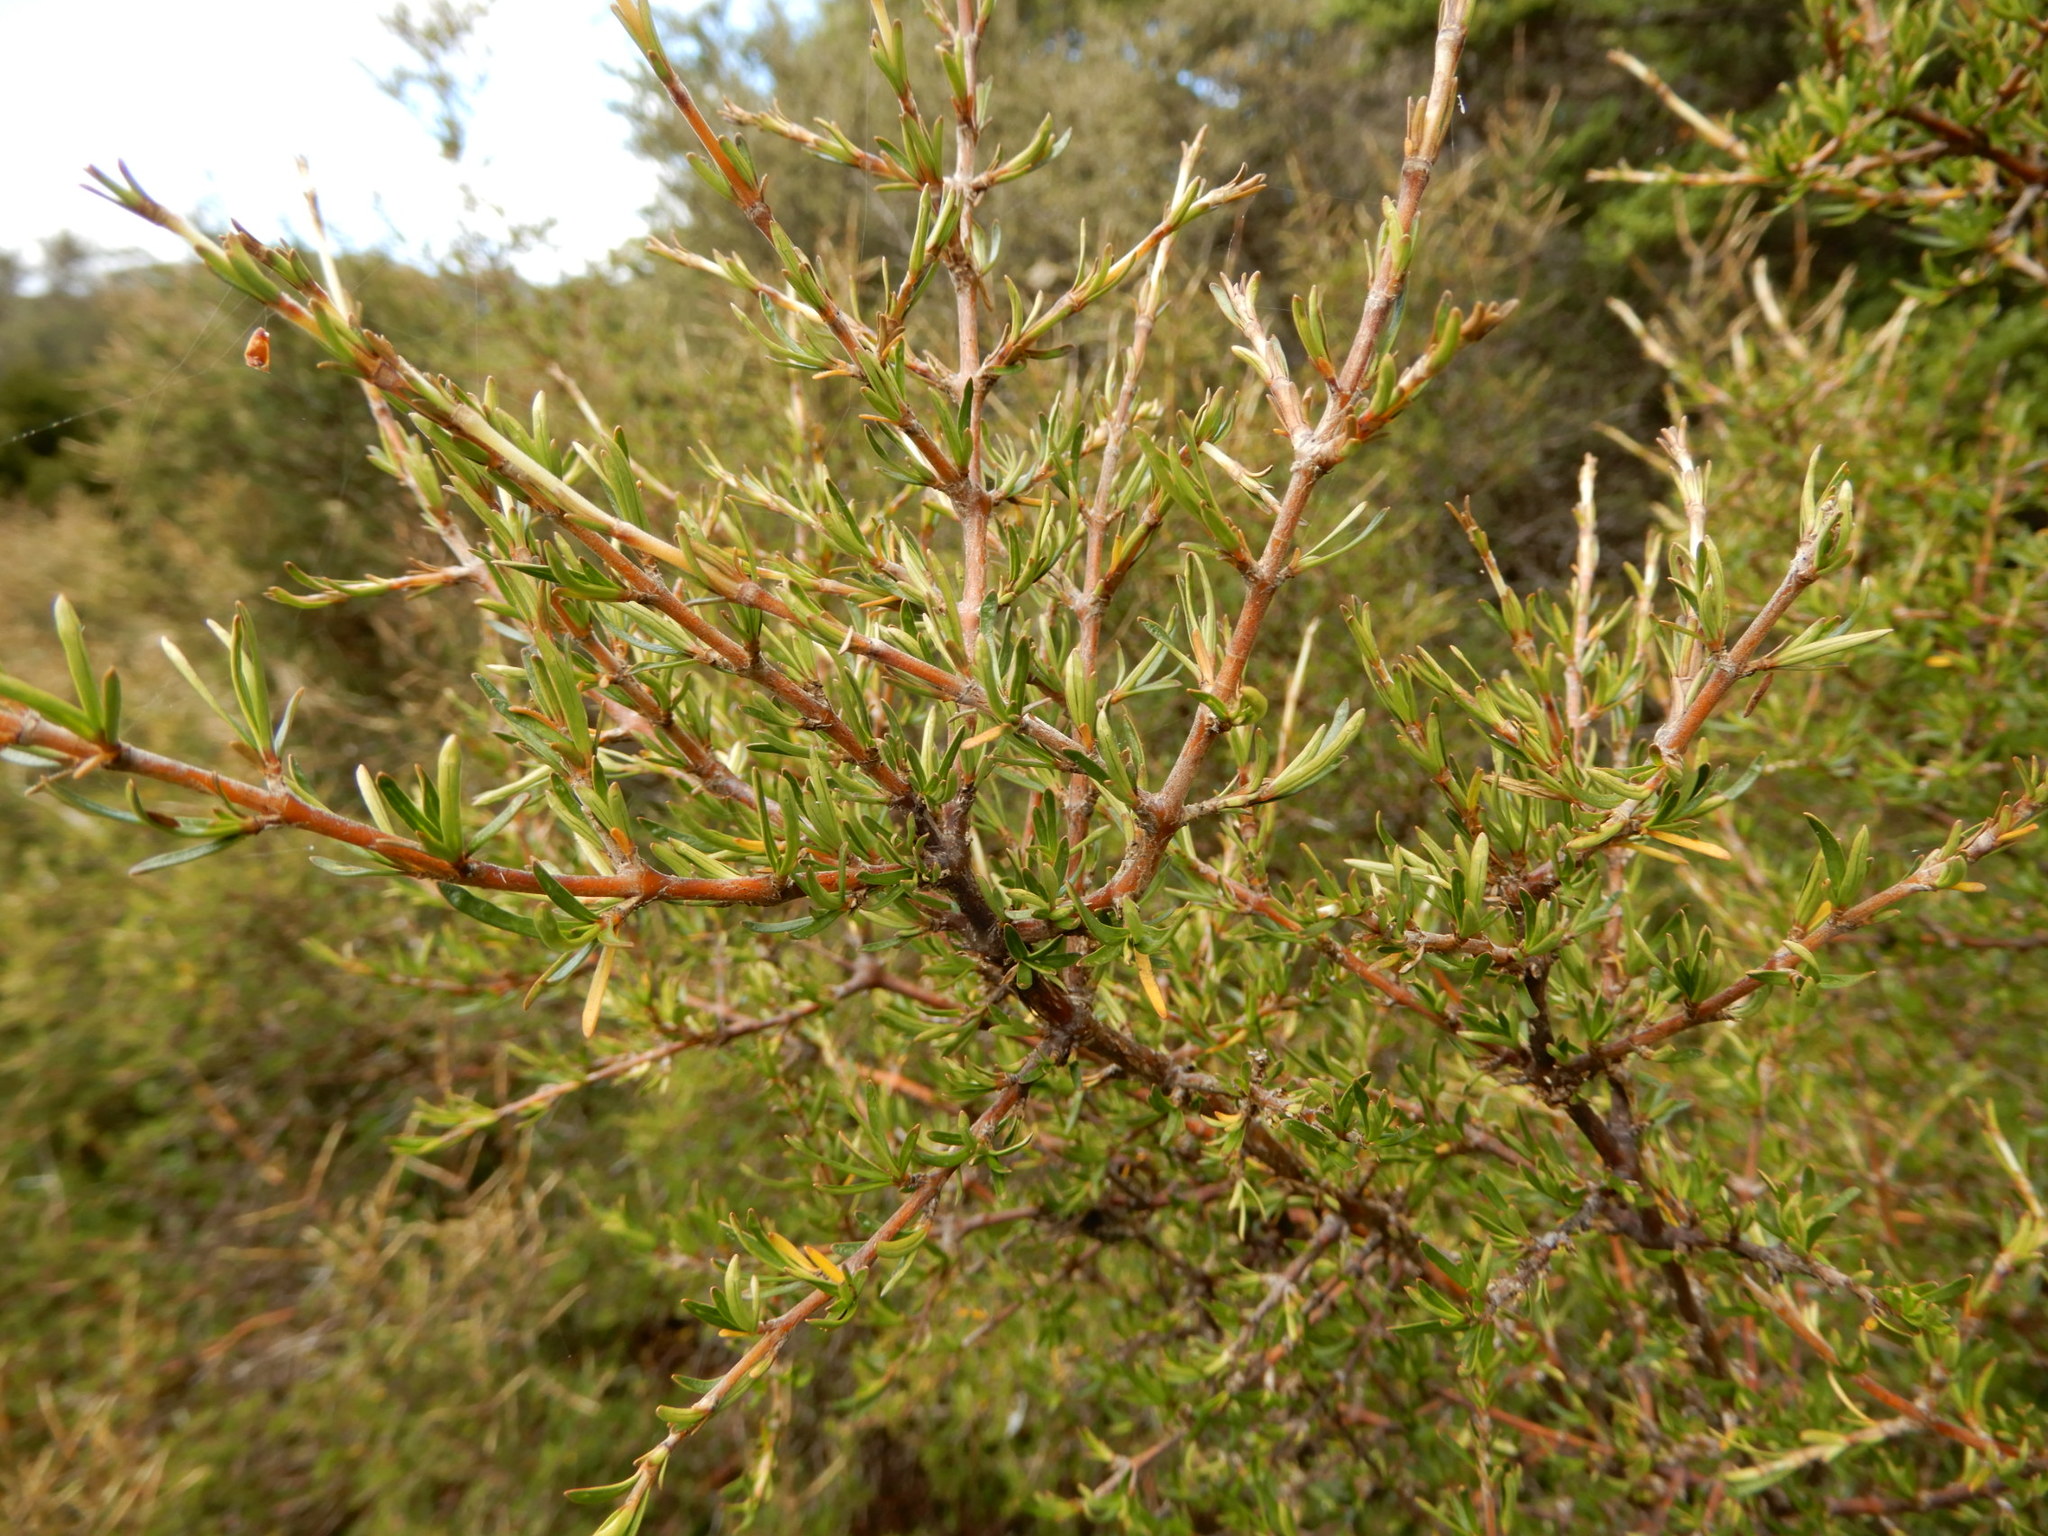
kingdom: Plantae
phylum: Tracheophyta
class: Magnoliopsida
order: Gentianales
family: Rubiaceae
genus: Coprosma
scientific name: Coprosma rugosa
